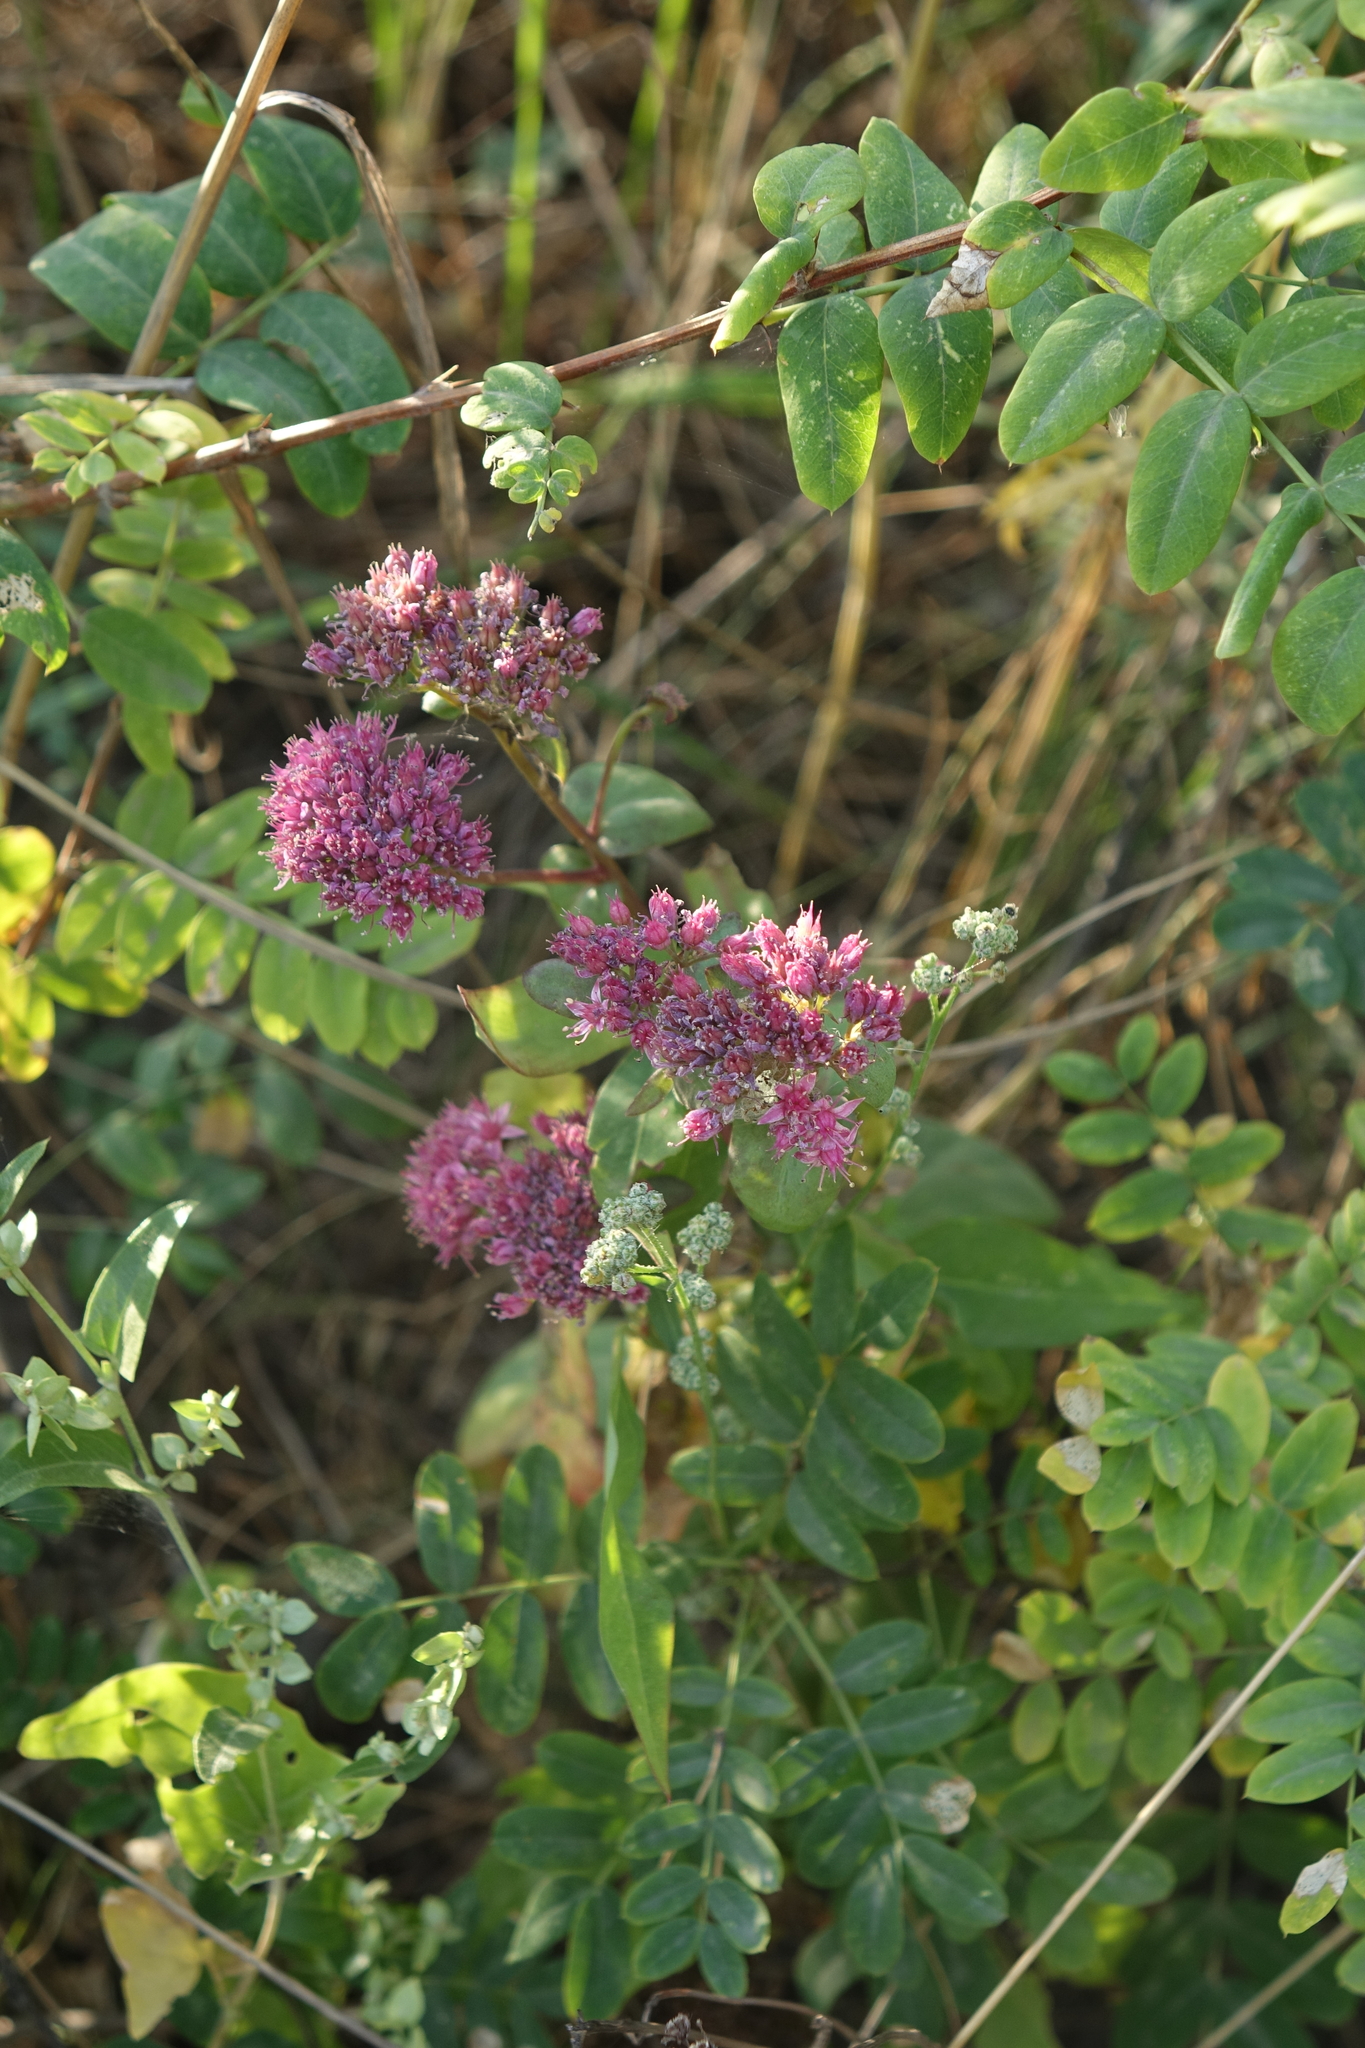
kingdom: Plantae
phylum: Tracheophyta
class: Magnoliopsida
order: Saxifragales
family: Crassulaceae
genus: Hylotelephium
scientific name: Hylotelephium telephium
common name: Live-forever
